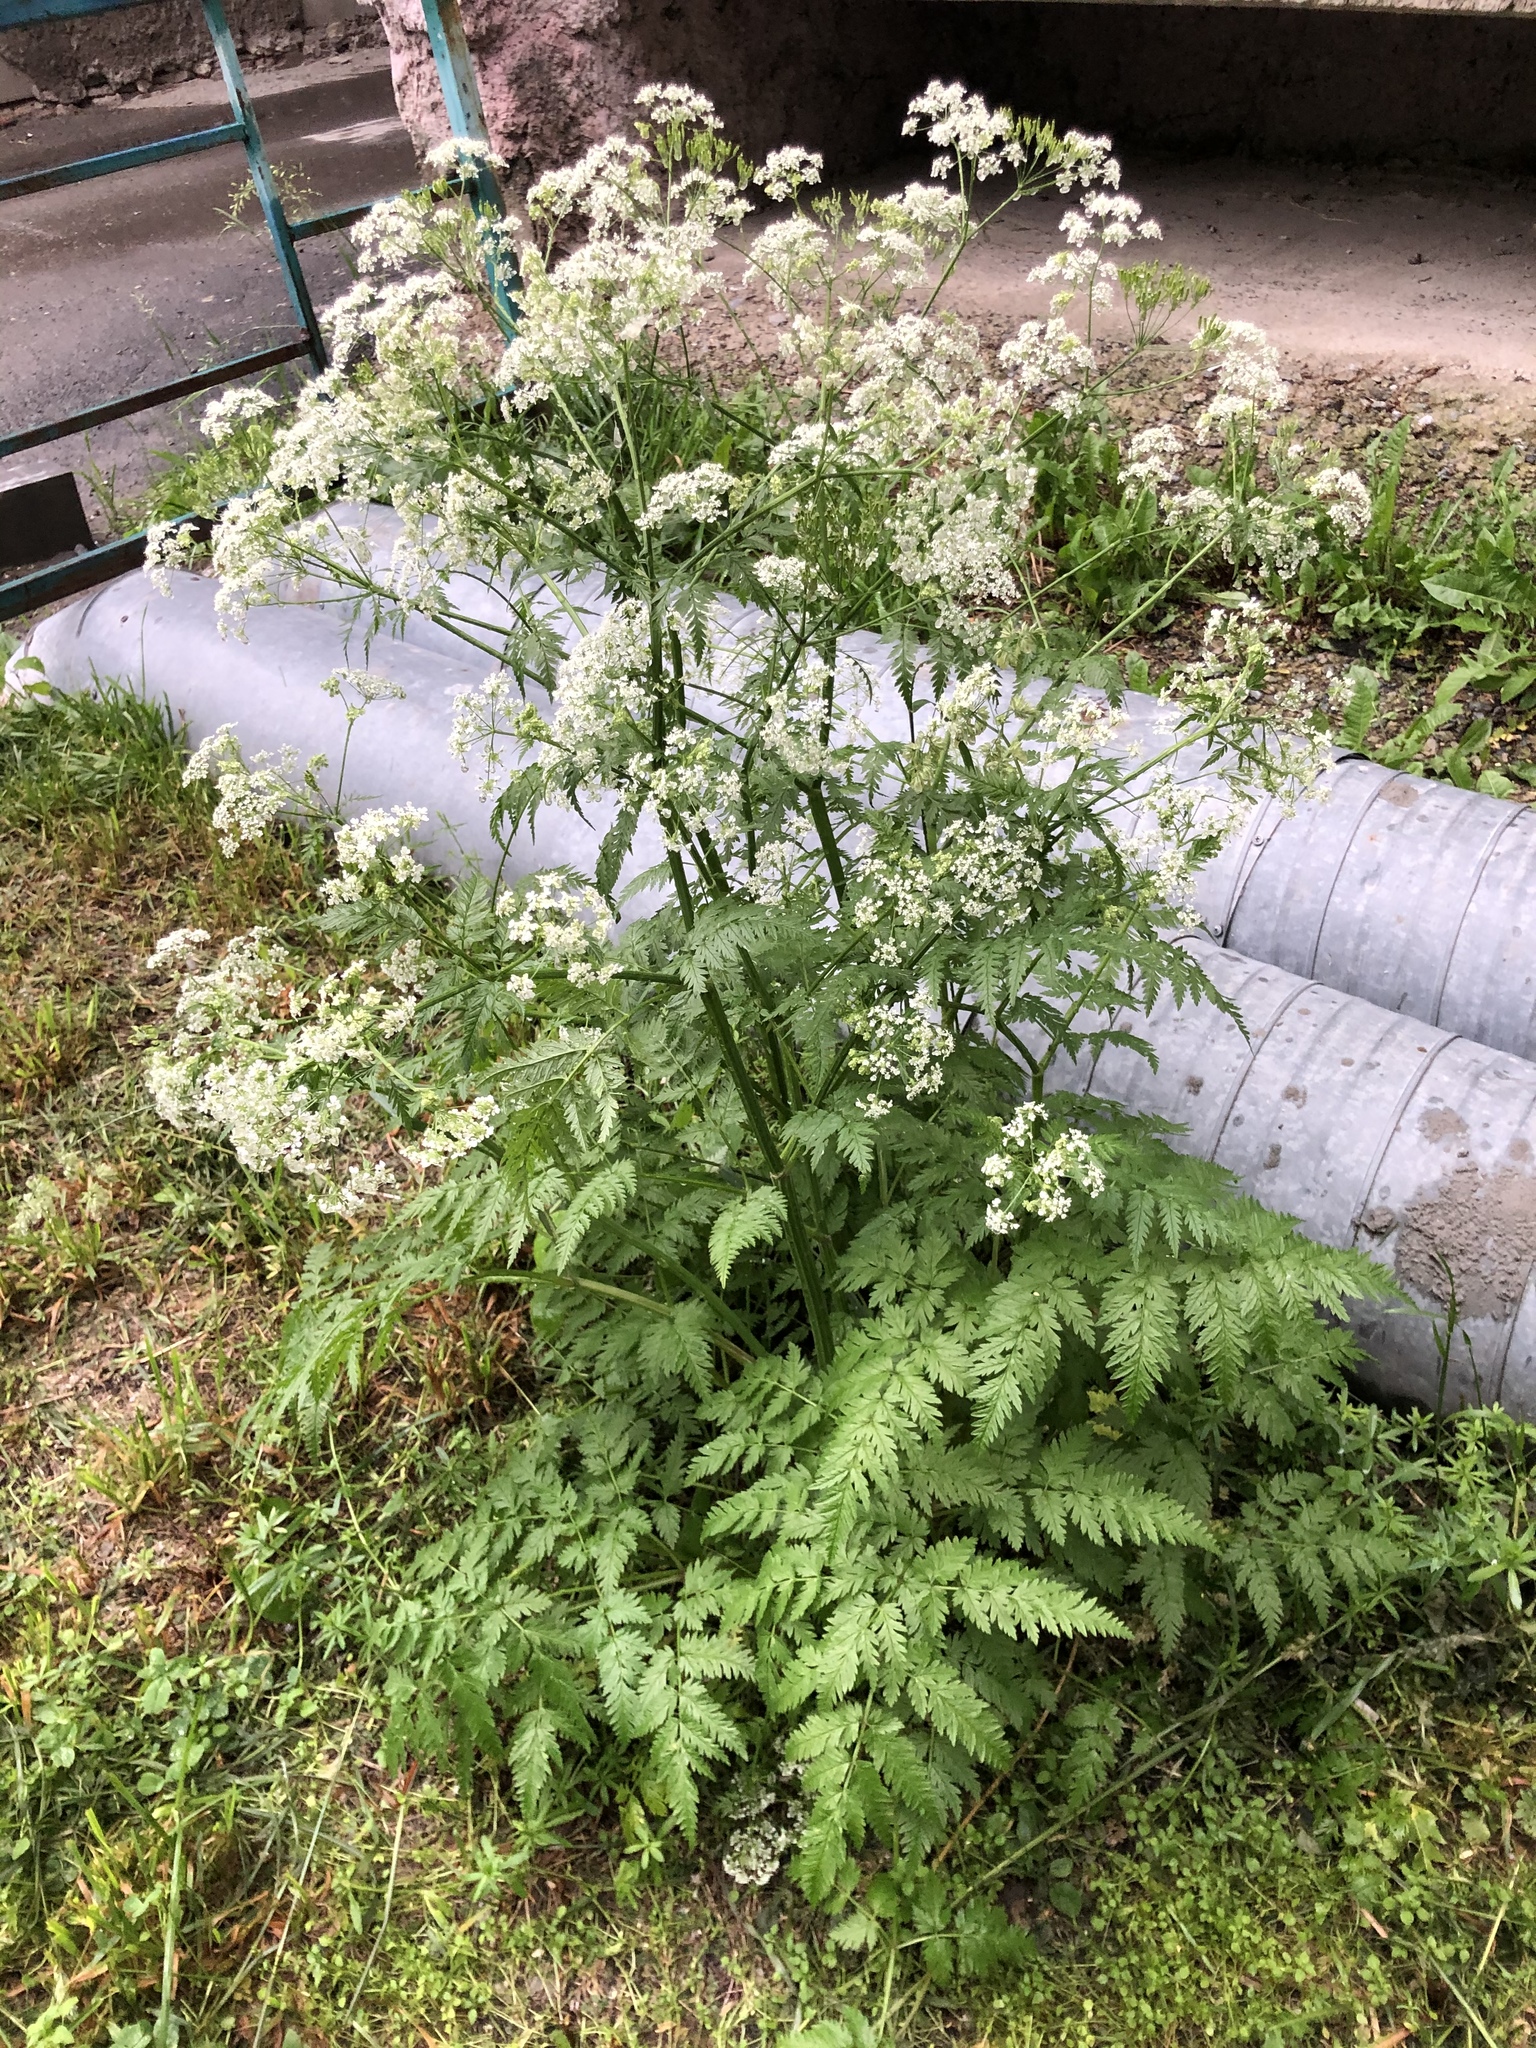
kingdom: Plantae
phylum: Tracheophyta
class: Magnoliopsida
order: Apiales
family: Apiaceae
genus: Anthriscus
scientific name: Anthriscus sylvestris
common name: Cow parsley
